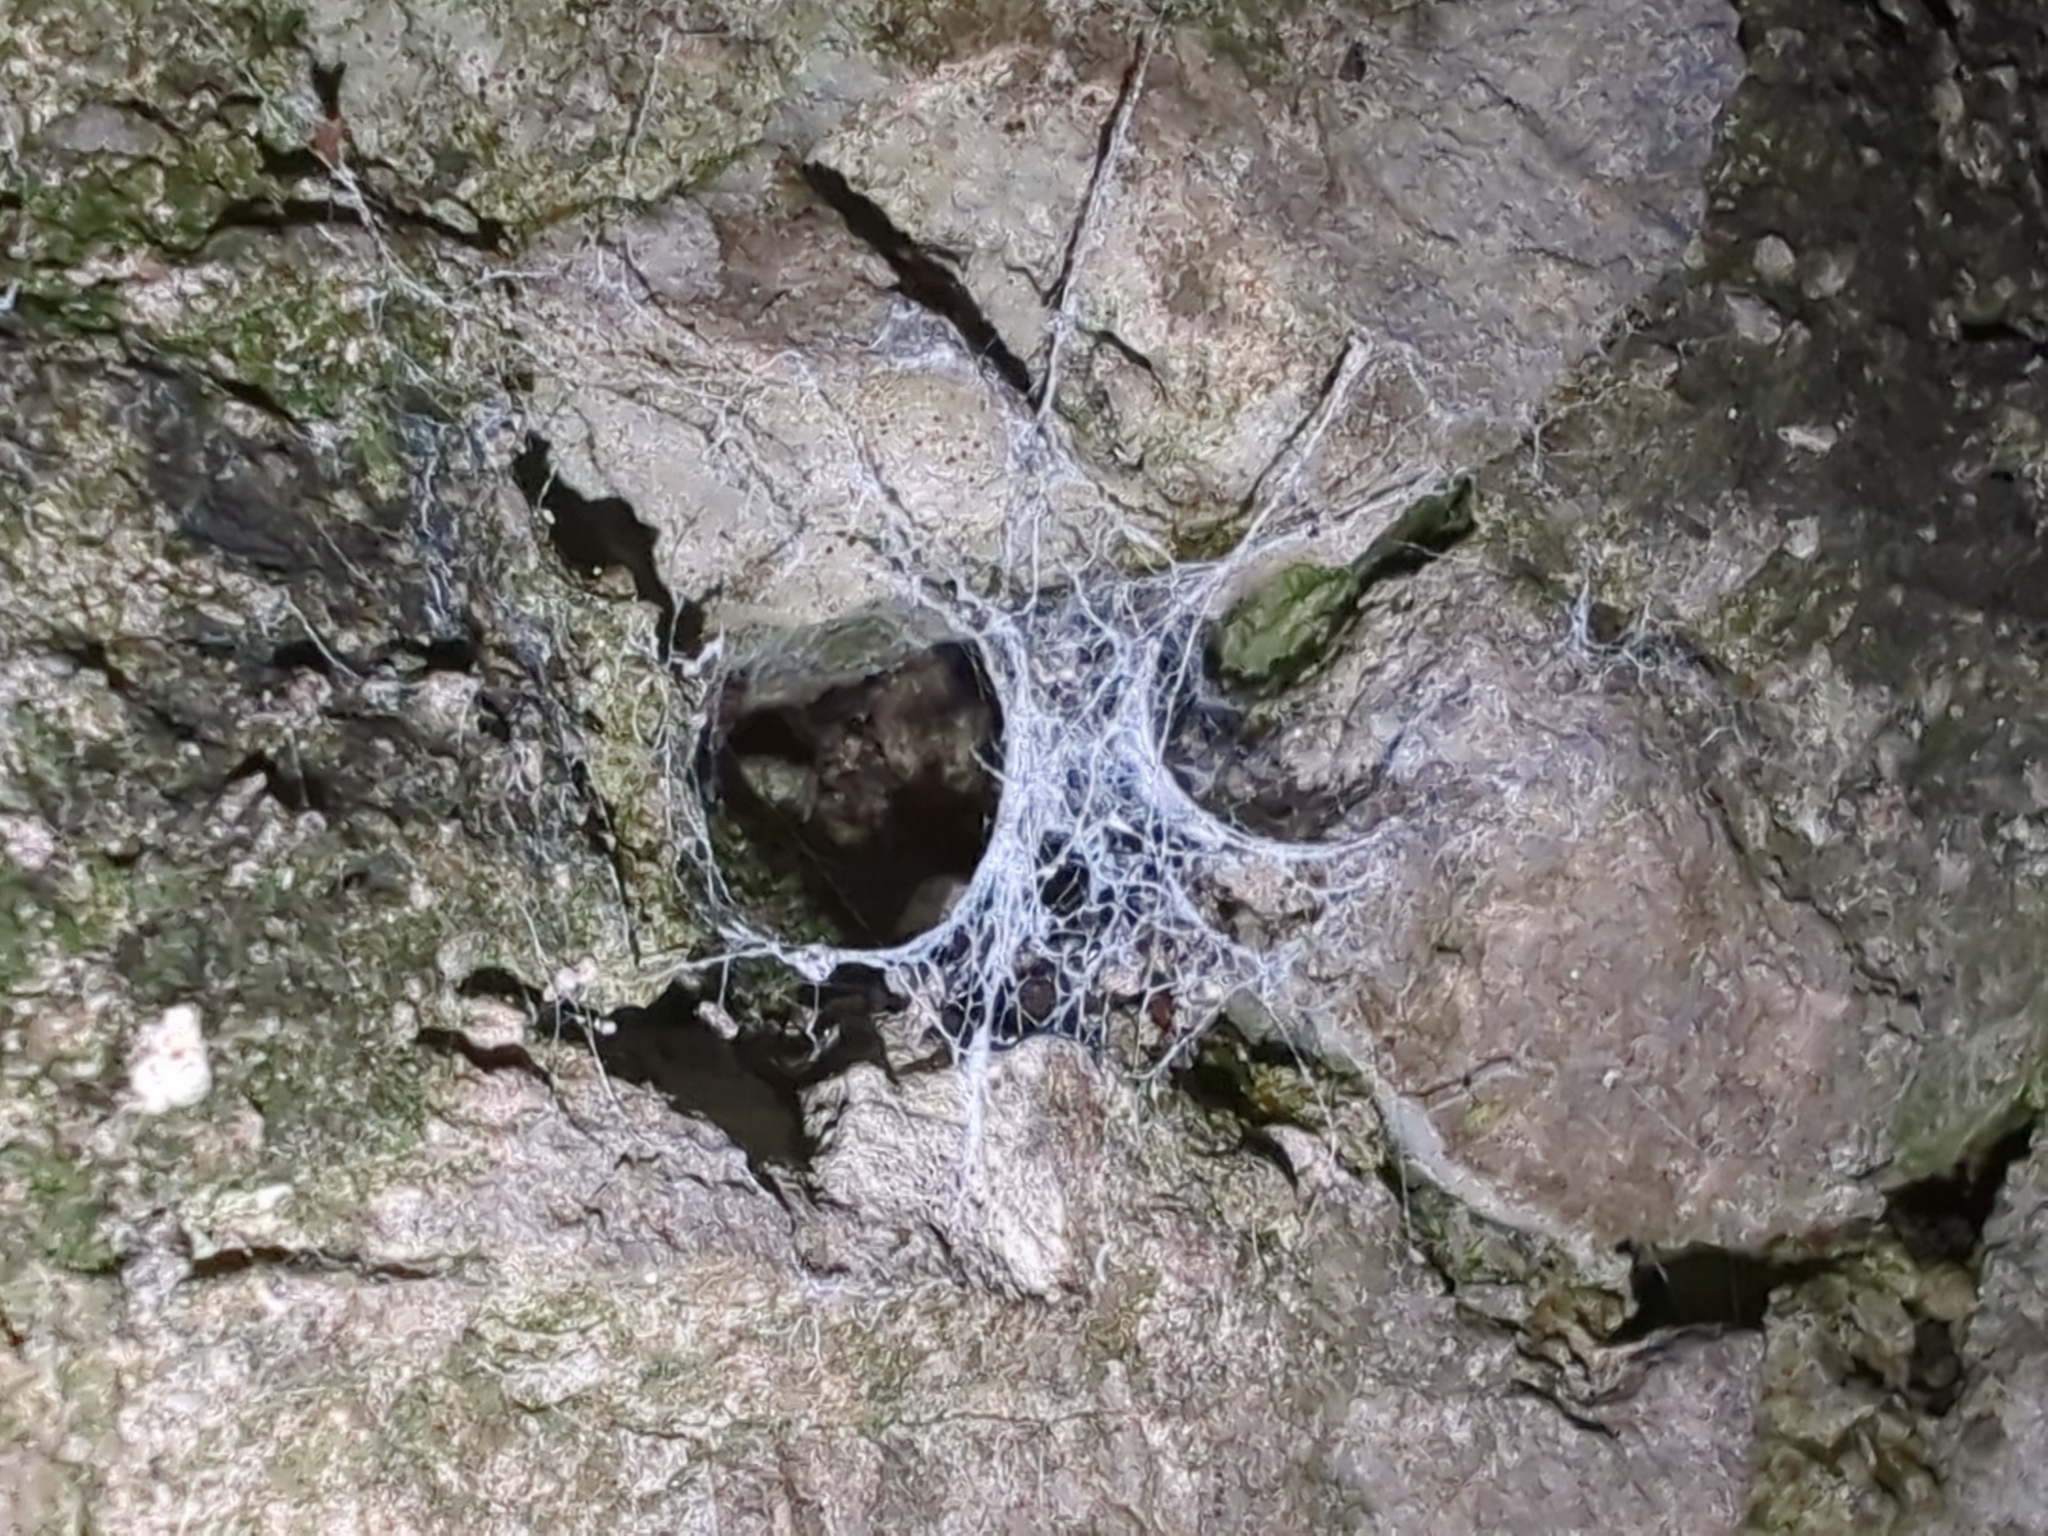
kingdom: Animalia
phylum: Arthropoda
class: Arachnida
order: Araneae
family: Anyphaenidae
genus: Anyphaena
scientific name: Anyphaena accentuata
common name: Buzzing spider
